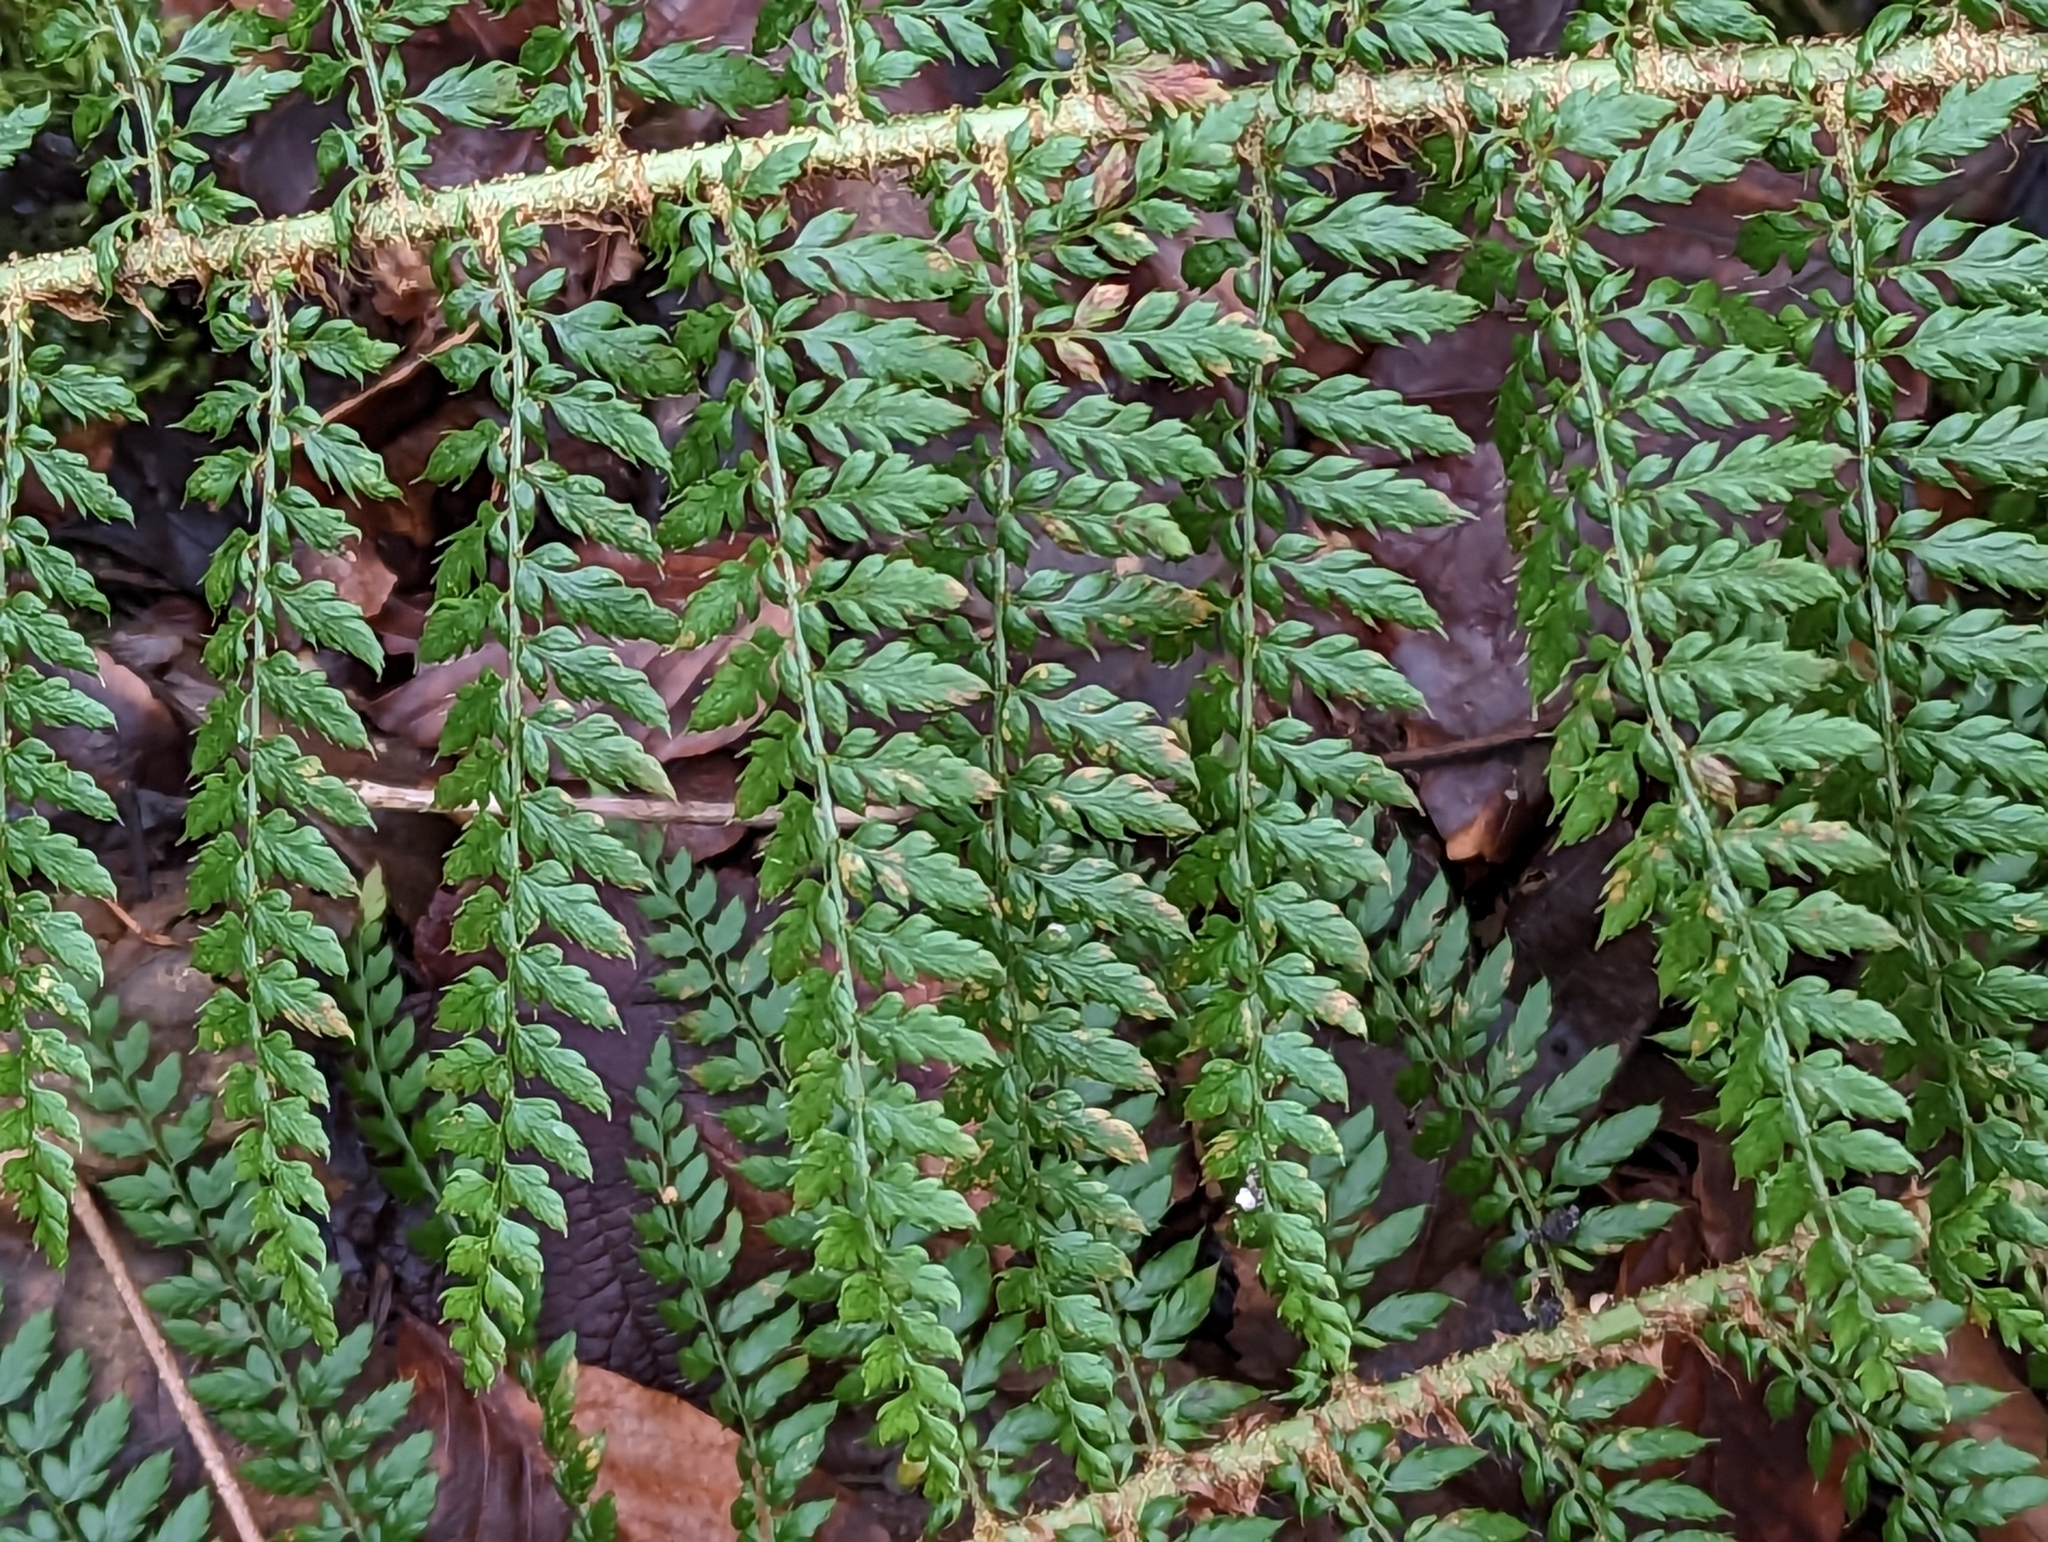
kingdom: Plantae
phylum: Tracheophyta
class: Polypodiopsida
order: Polypodiales
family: Dryopteridaceae
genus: Polystichum
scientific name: Polystichum setiferum
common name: Soft shield-fern
